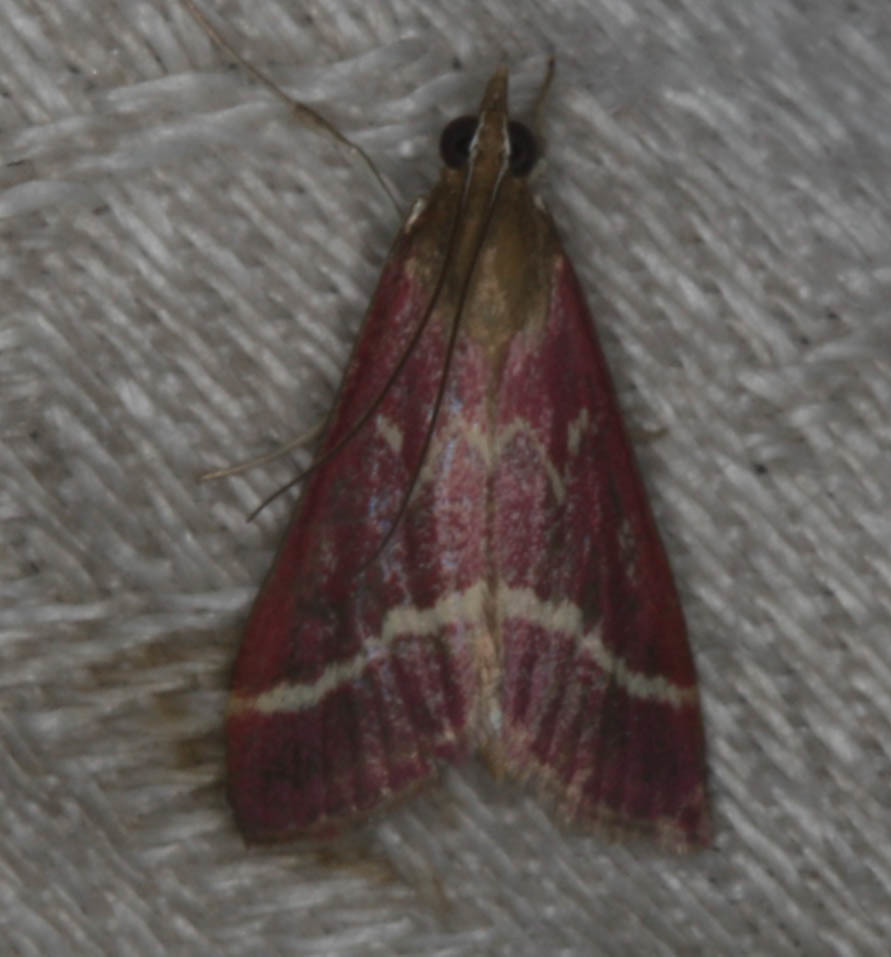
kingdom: Animalia
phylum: Arthropoda
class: Insecta
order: Lepidoptera
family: Crambidae
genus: Pyrausta
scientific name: Pyrausta volupialis
